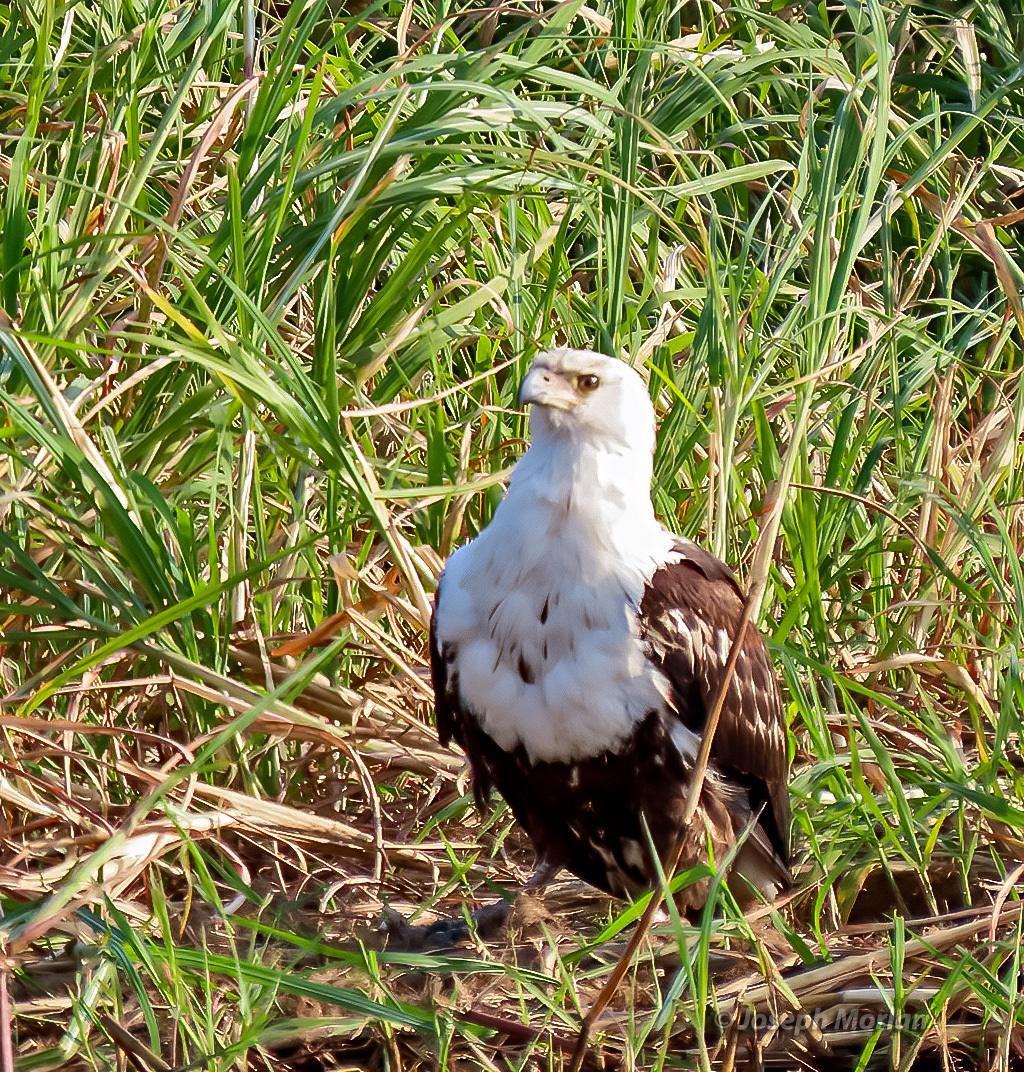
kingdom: Animalia
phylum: Chordata
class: Aves
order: Accipitriformes
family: Accipitridae
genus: Haliaeetus
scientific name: Haliaeetus vocifer
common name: African fish eagle
